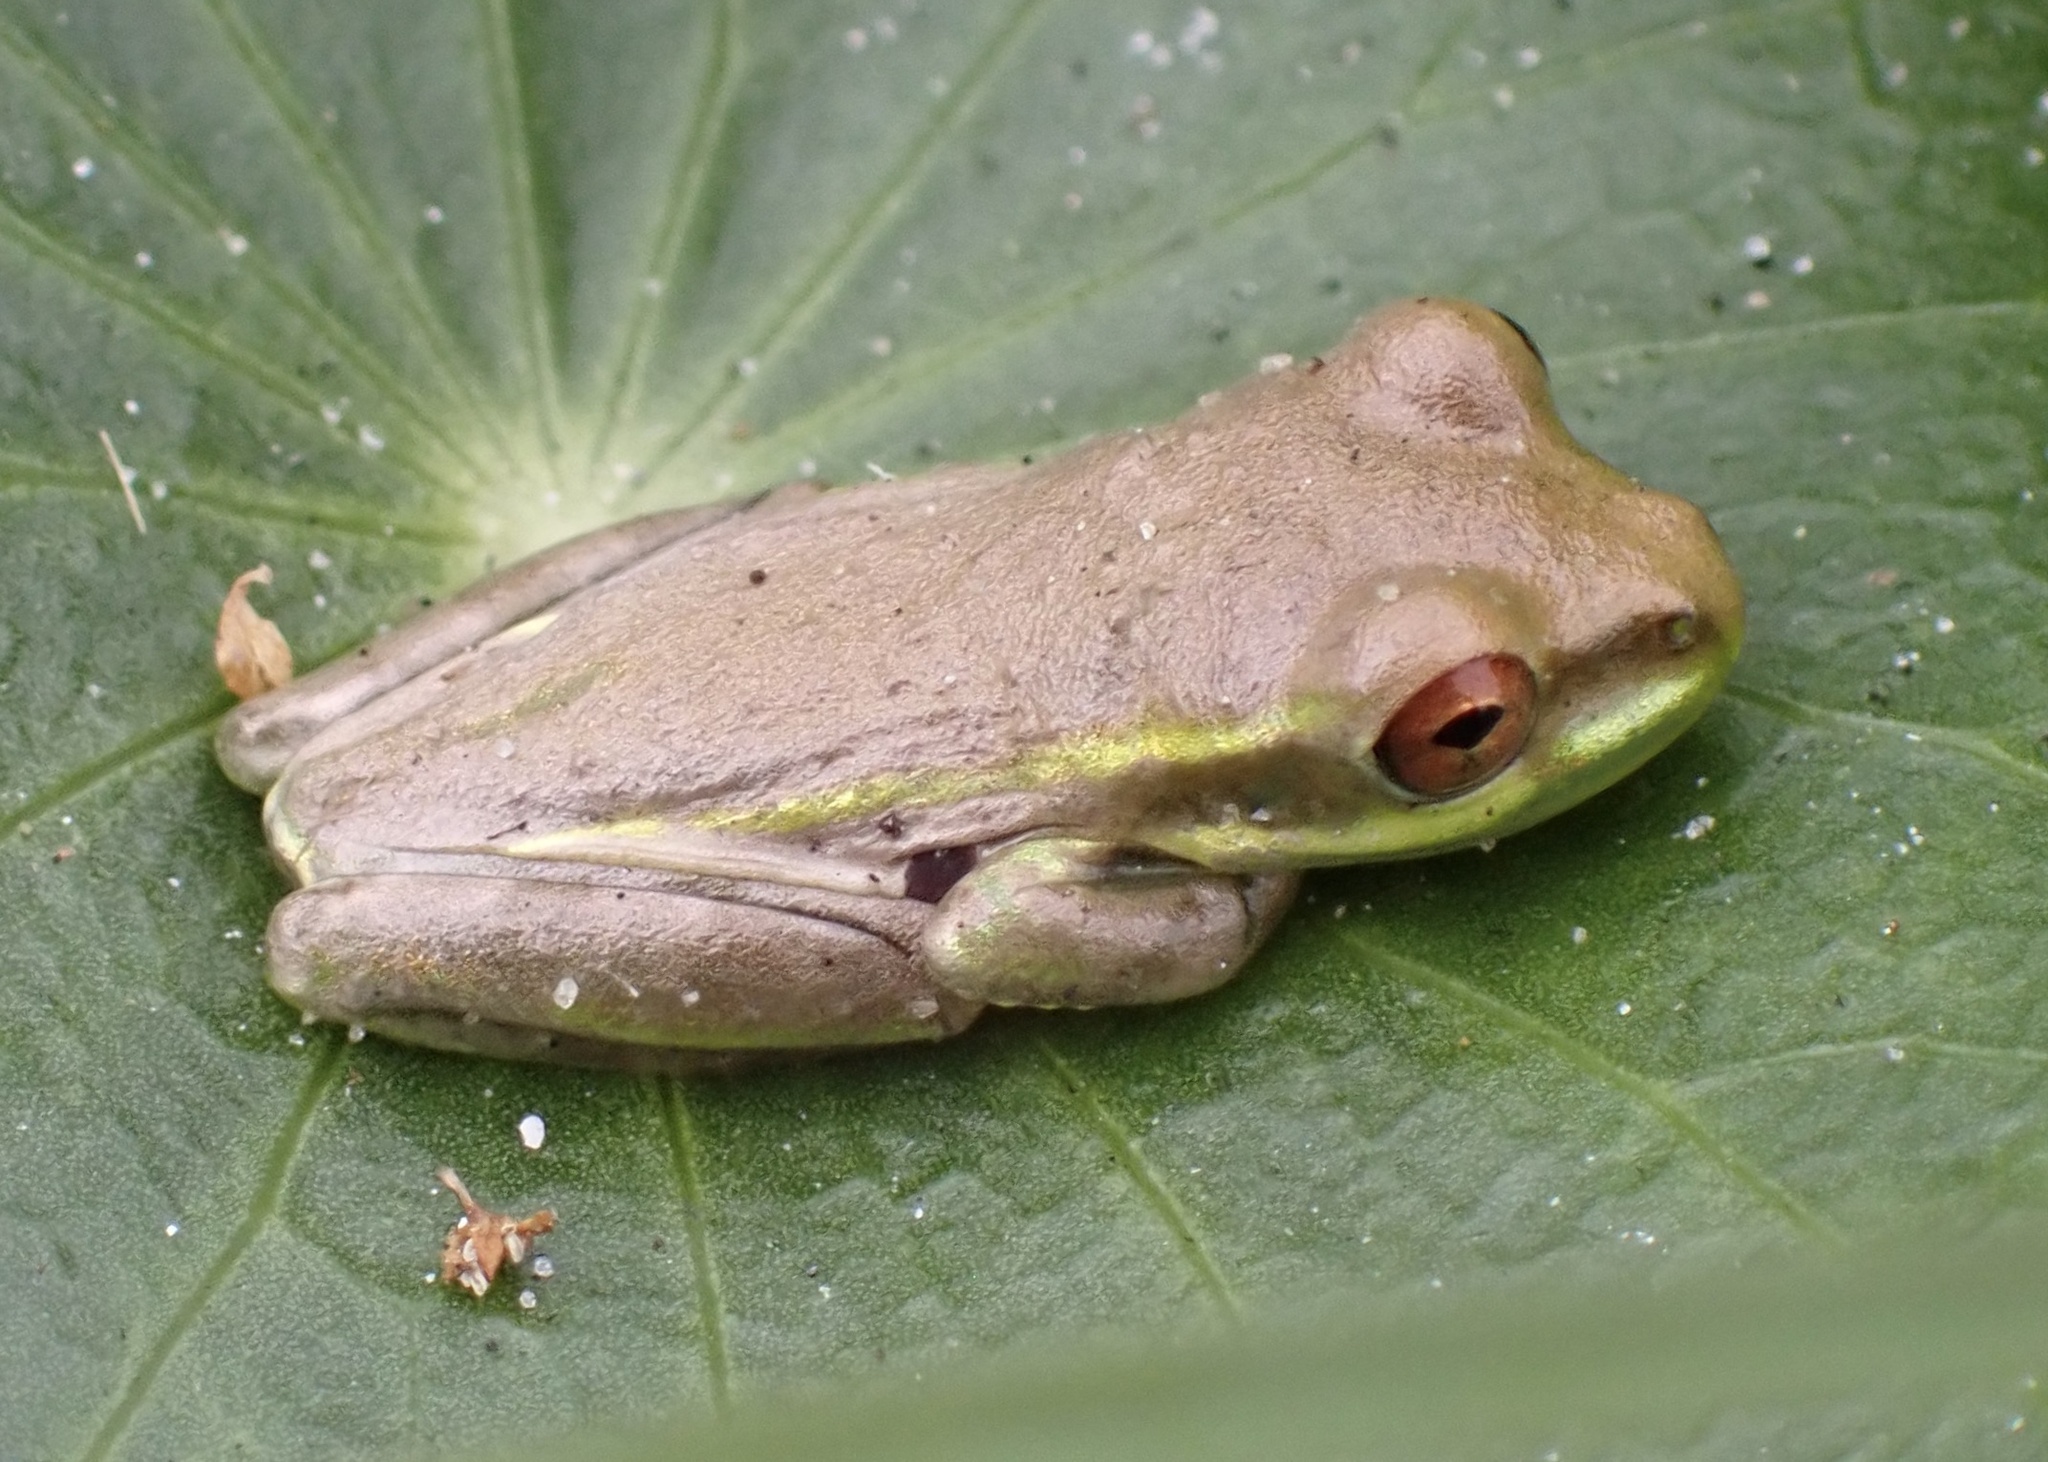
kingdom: Animalia
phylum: Chordata
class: Amphibia
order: Anura
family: Hylidae
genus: Osteopilus
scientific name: Osteopilus septentrionalis
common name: Cuban treefrog
